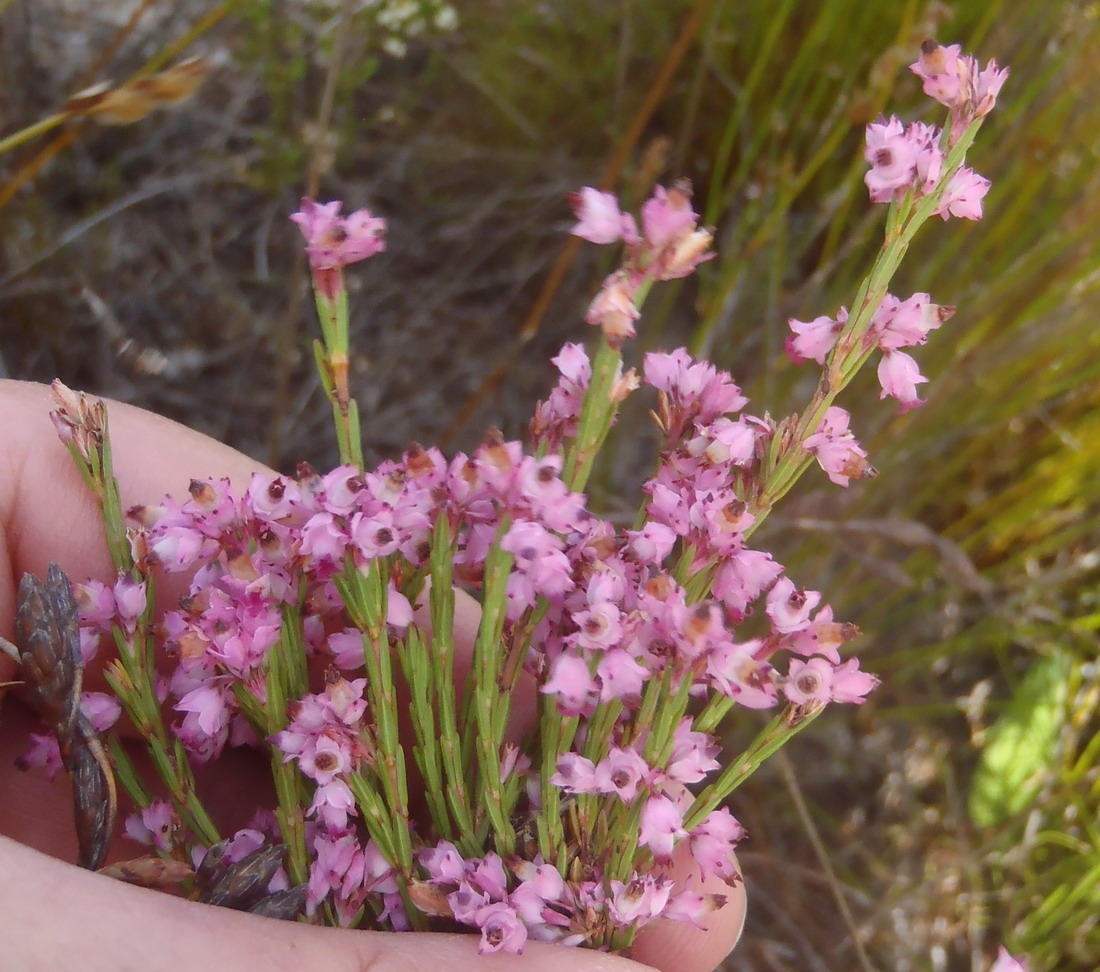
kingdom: Plantae
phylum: Tracheophyta
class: Magnoliopsida
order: Ericales
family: Ericaceae
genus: Erica
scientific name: Erica corifolia
